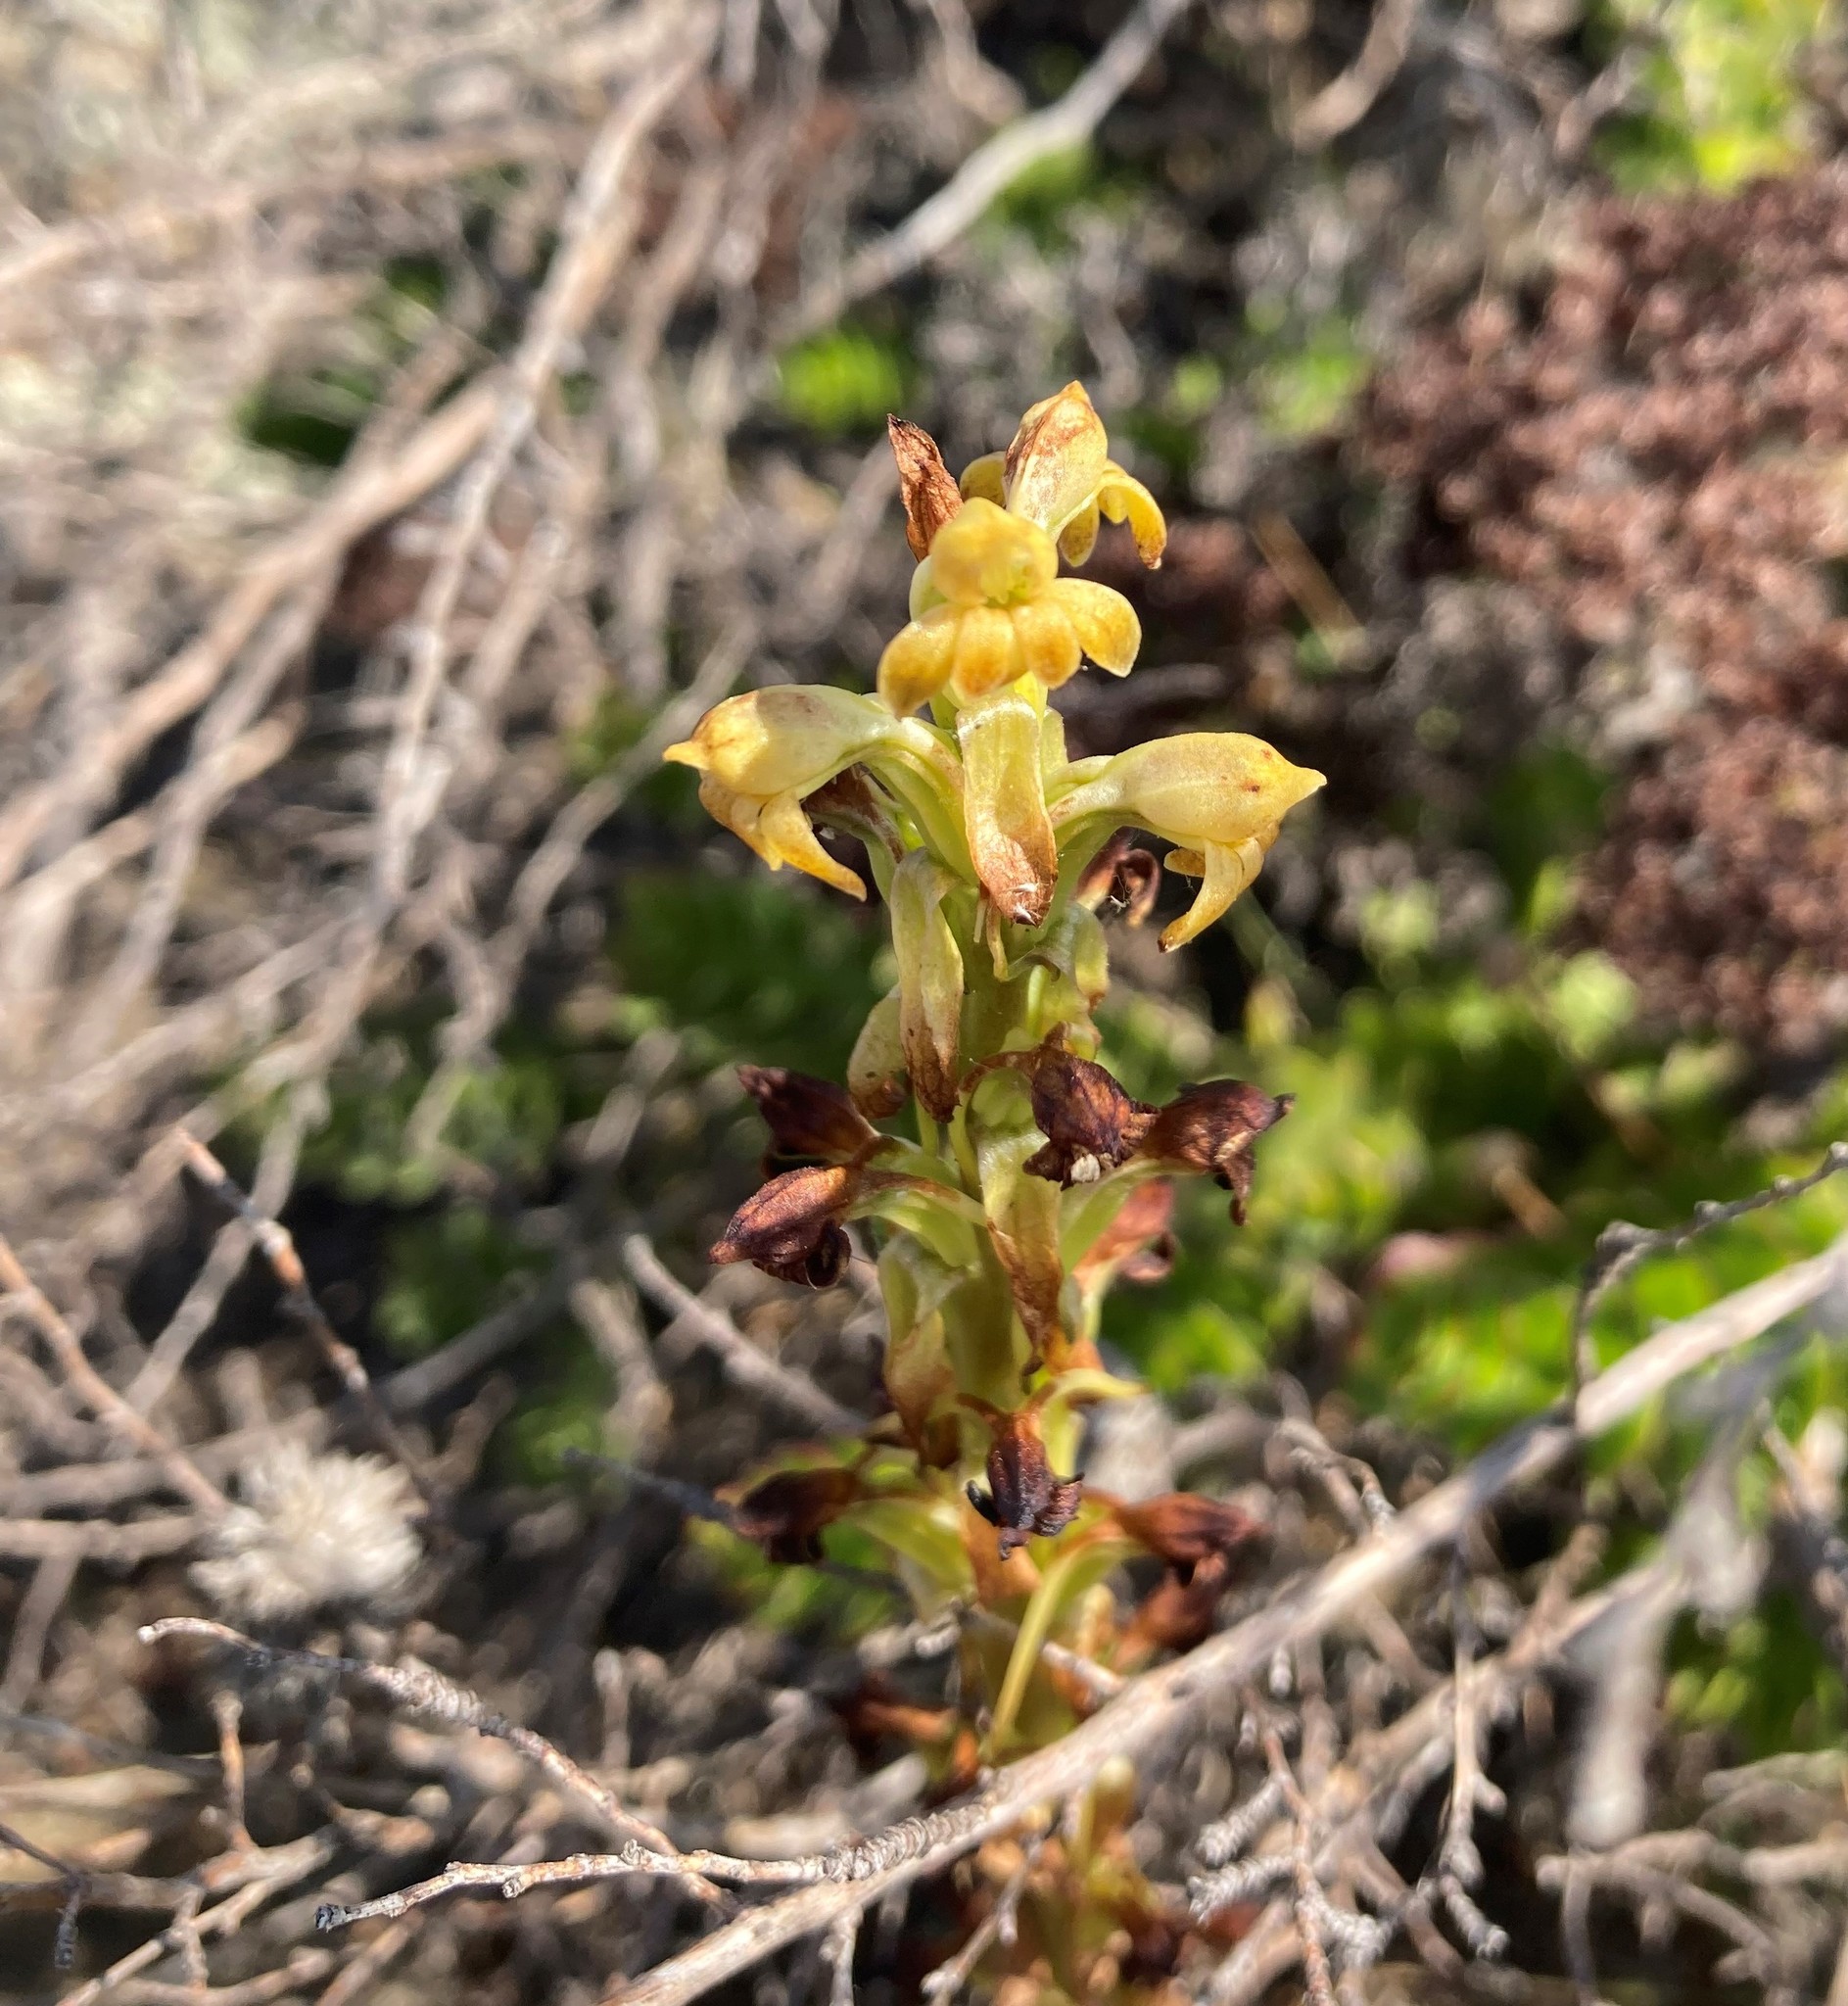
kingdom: Plantae
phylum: Tracheophyta
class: Liliopsida
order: Asparagales
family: Orchidaceae
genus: Satyrium
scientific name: Satyrium bicorne
